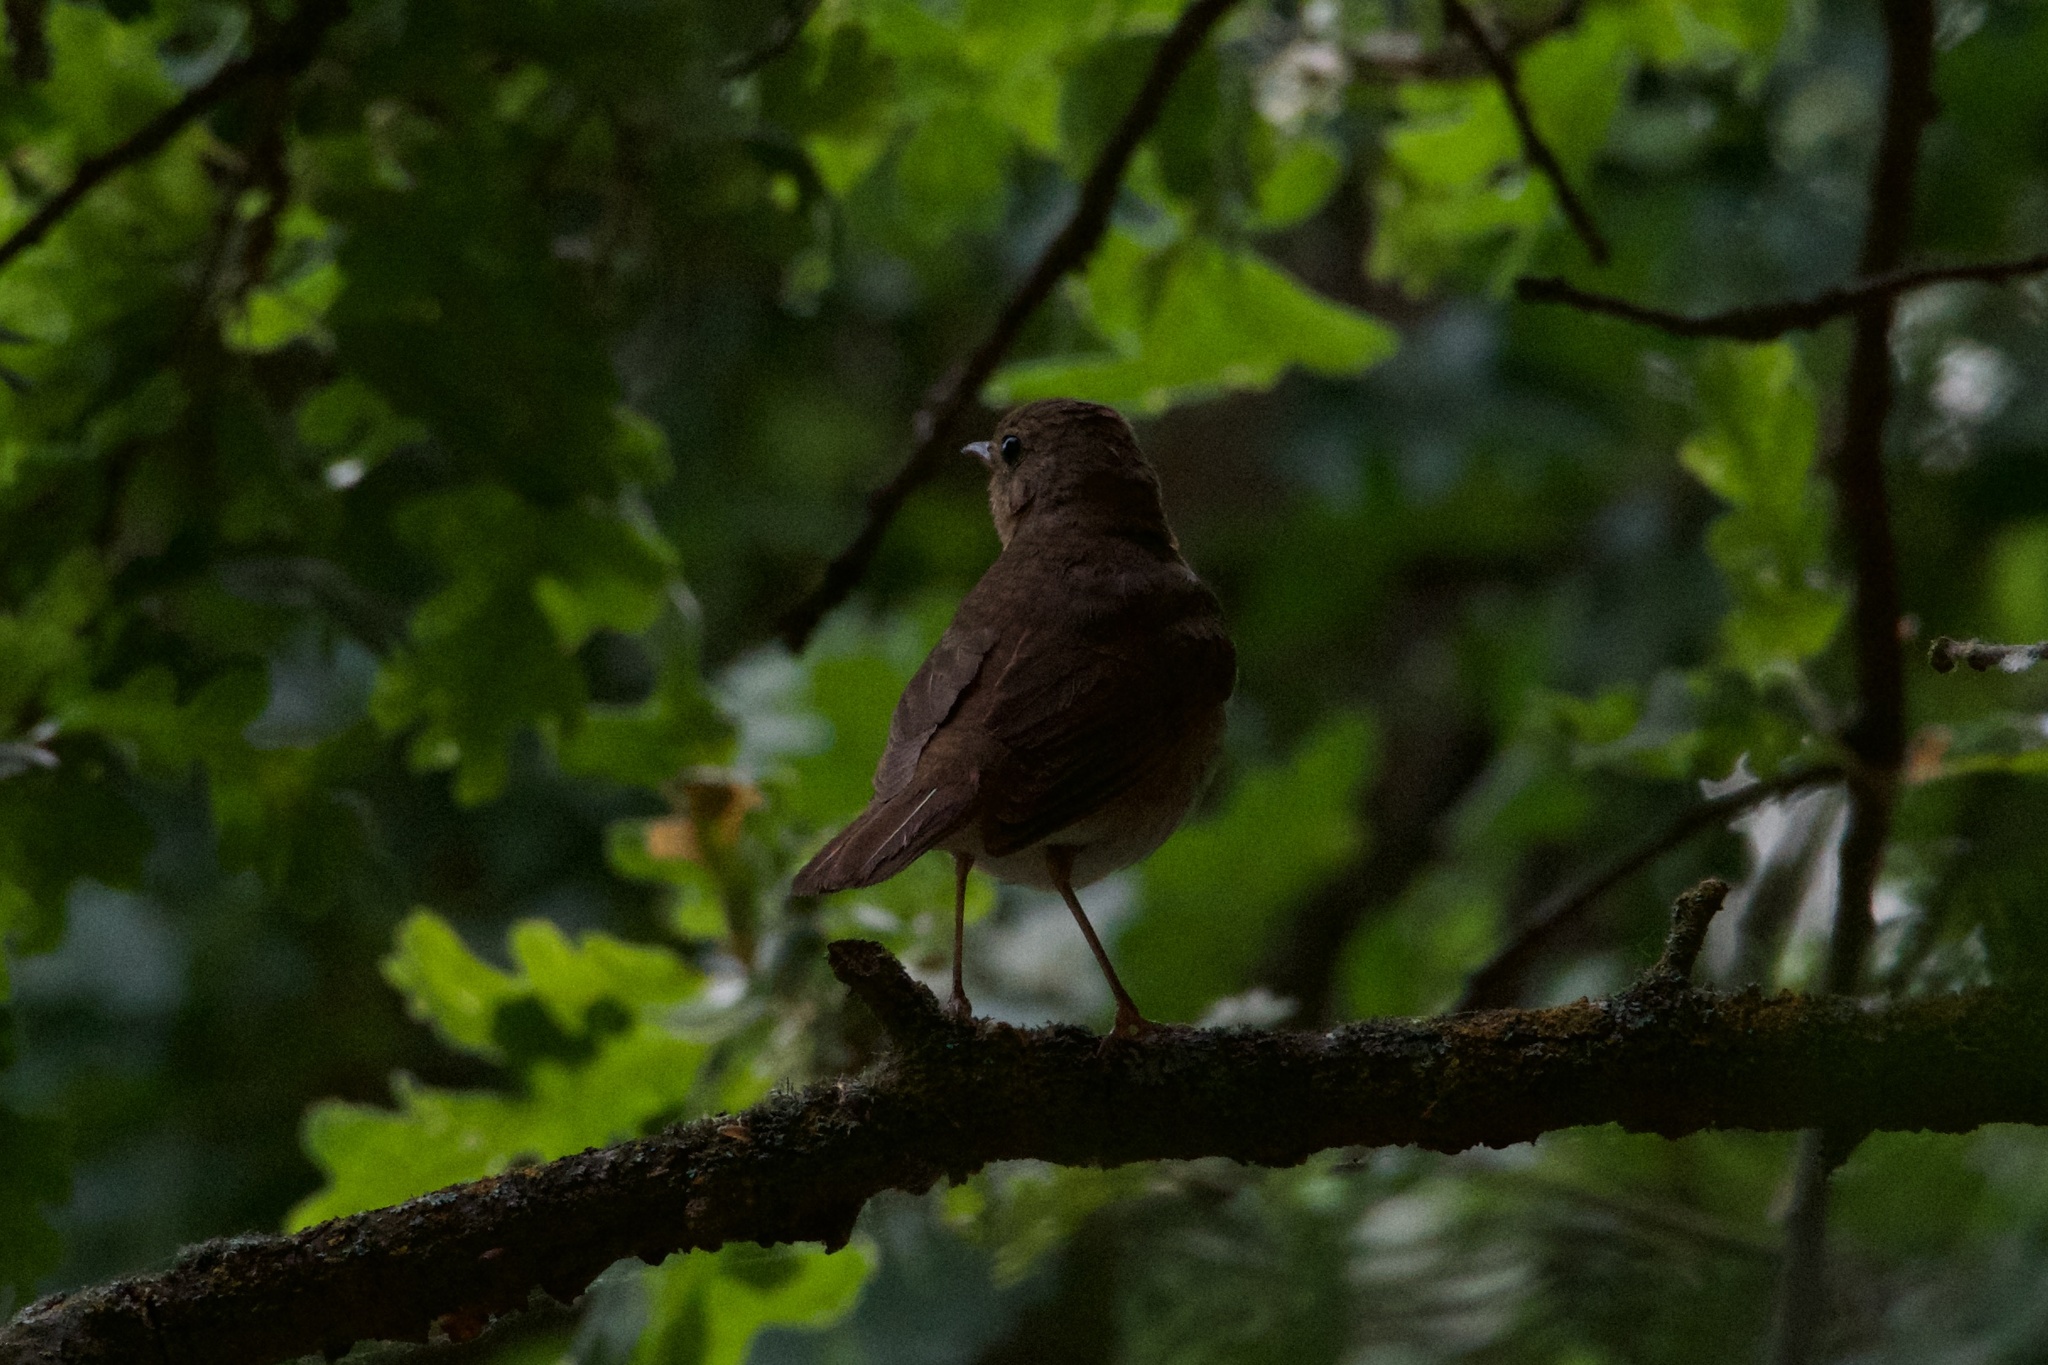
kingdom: Animalia
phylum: Chordata
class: Aves
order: Passeriformes
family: Turdidae
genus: Catharus
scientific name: Catharus ustulatus
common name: Swainson's thrush
